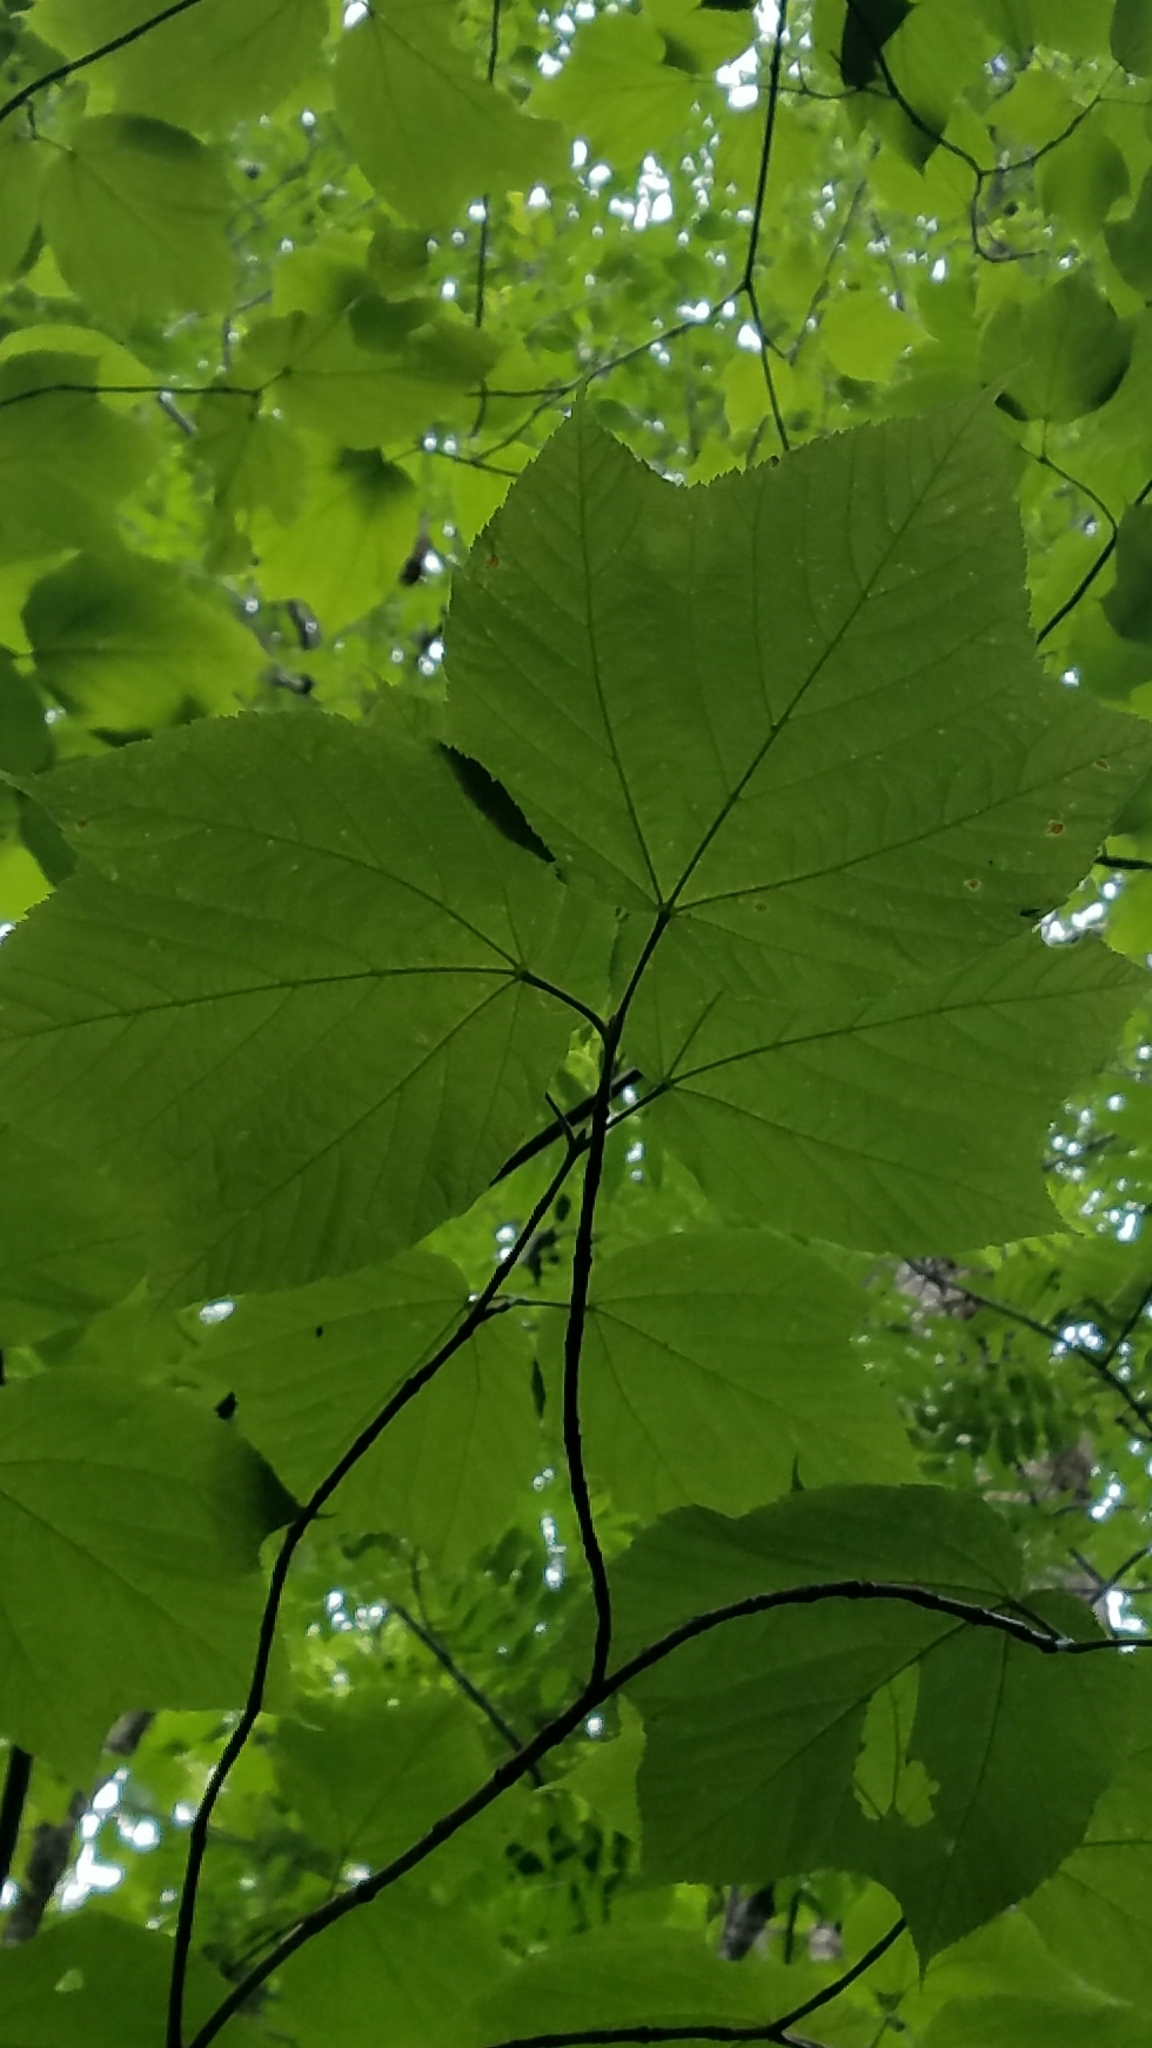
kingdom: Plantae
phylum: Tracheophyta
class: Magnoliopsida
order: Sapindales
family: Sapindaceae
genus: Acer
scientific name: Acer pensylvanicum
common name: Moosewood
